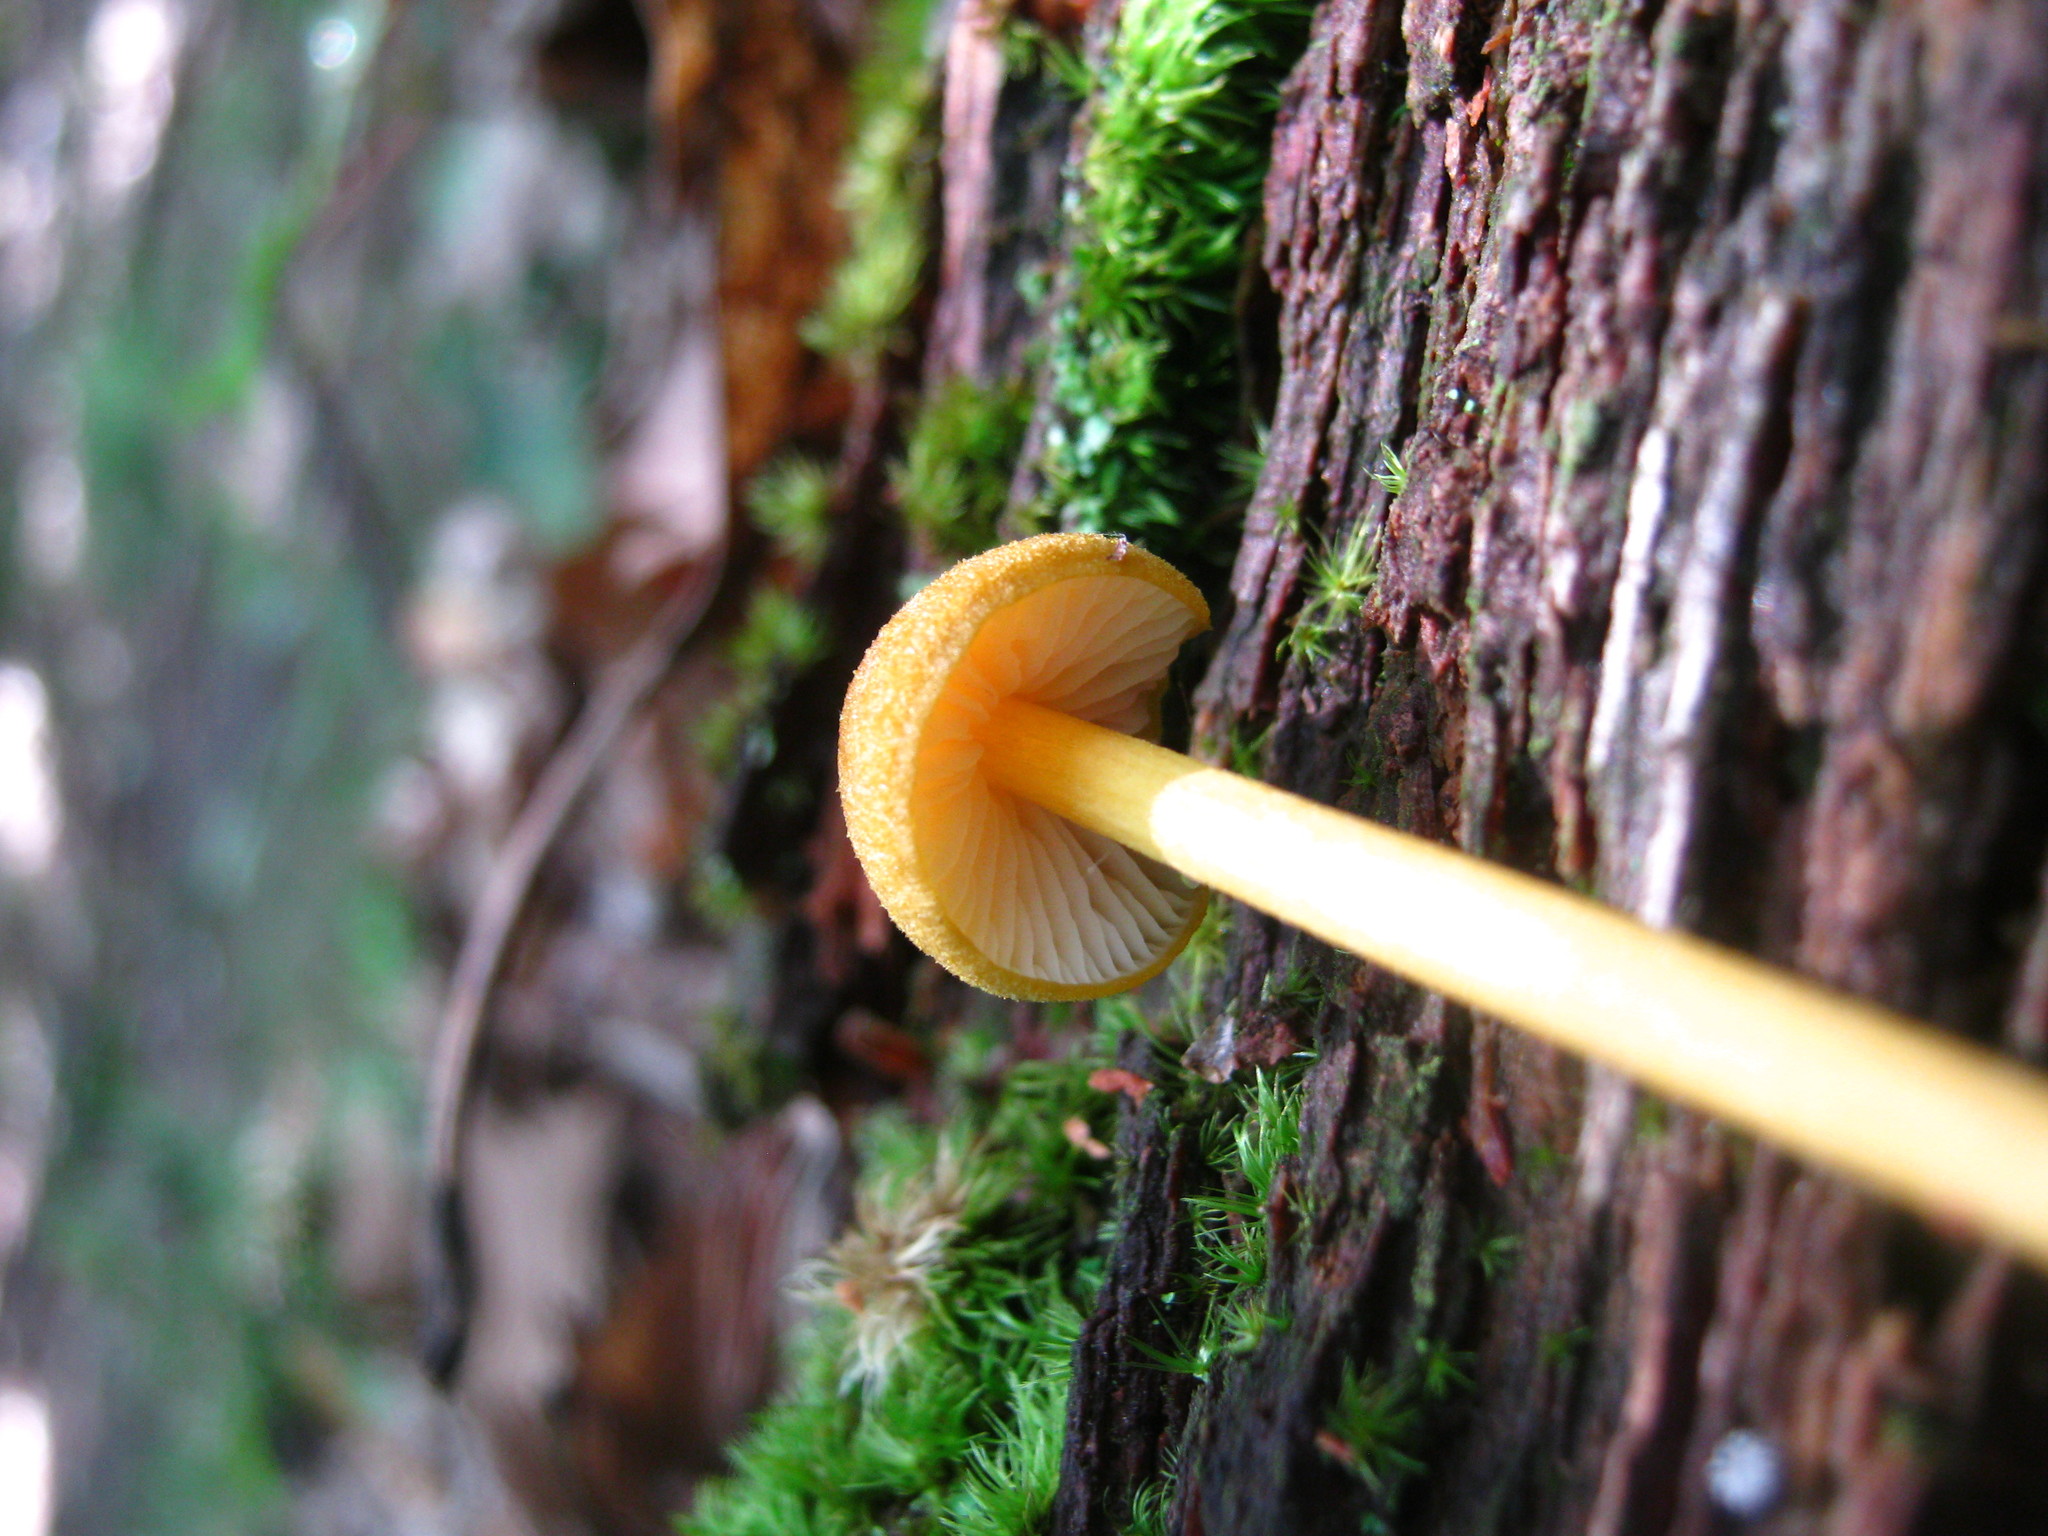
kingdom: Fungi
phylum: Basidiomycota
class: Agaricomycetes
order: Agaricales
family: Entolomataceae
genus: Entoloma
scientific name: Entoloma luteum
